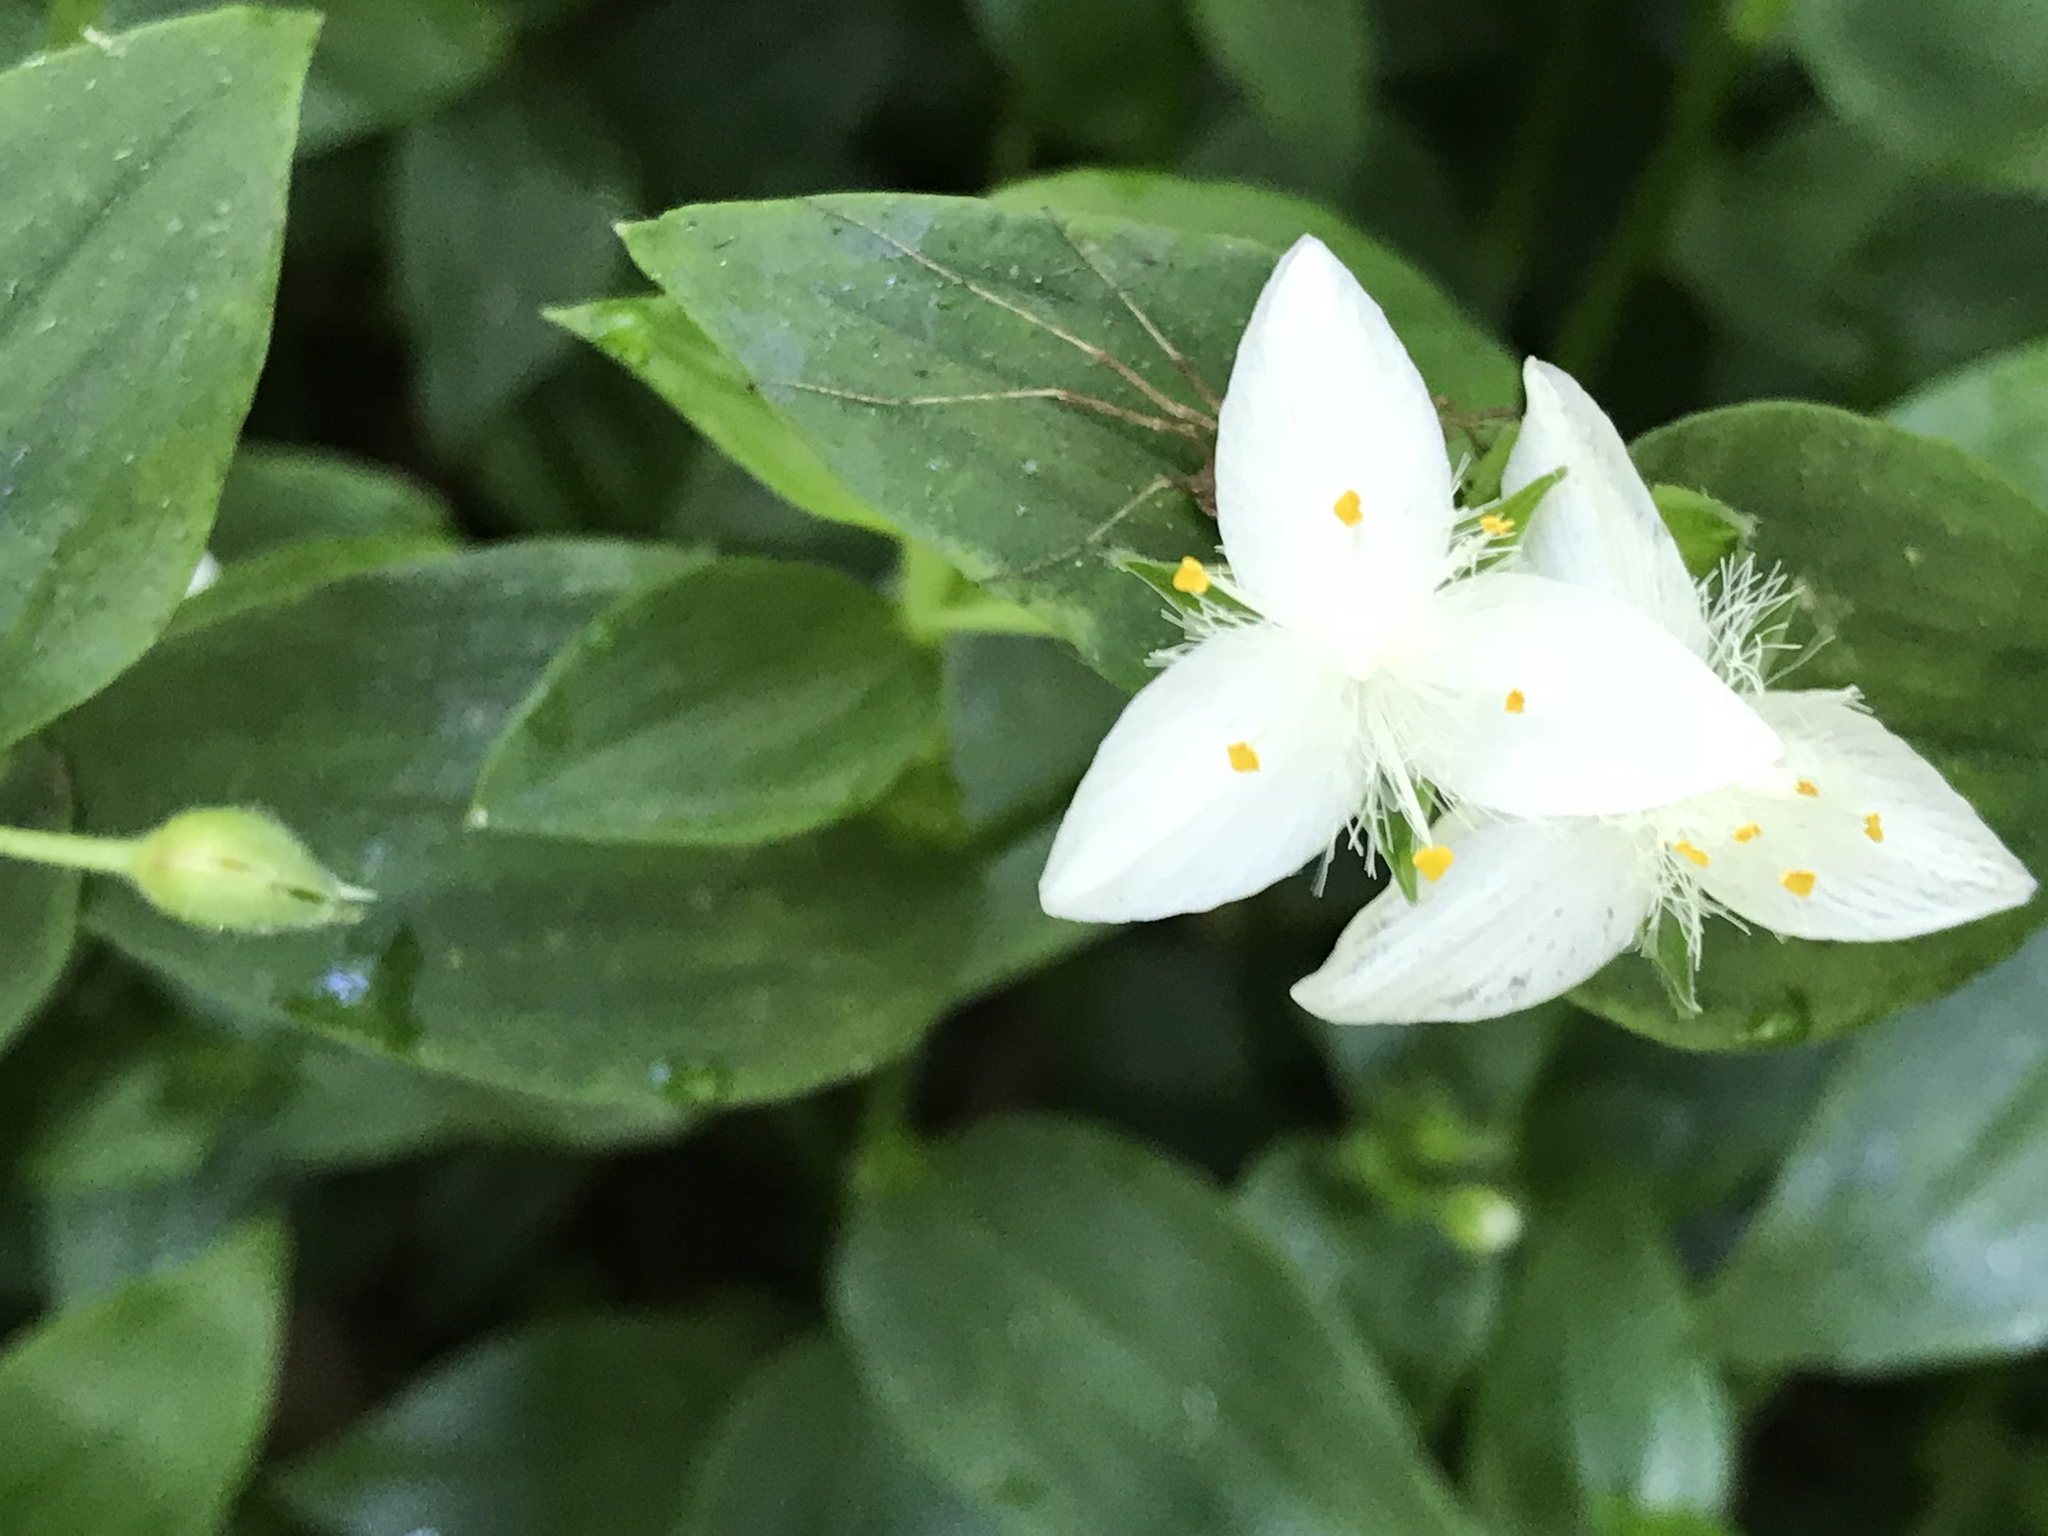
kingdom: Plantae
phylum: Tracheophyta
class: Liliopsida
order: Commelinales
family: Commelinaceae
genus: Tradescantia
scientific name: Tradescantia fluminensis
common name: Wandering-jew
